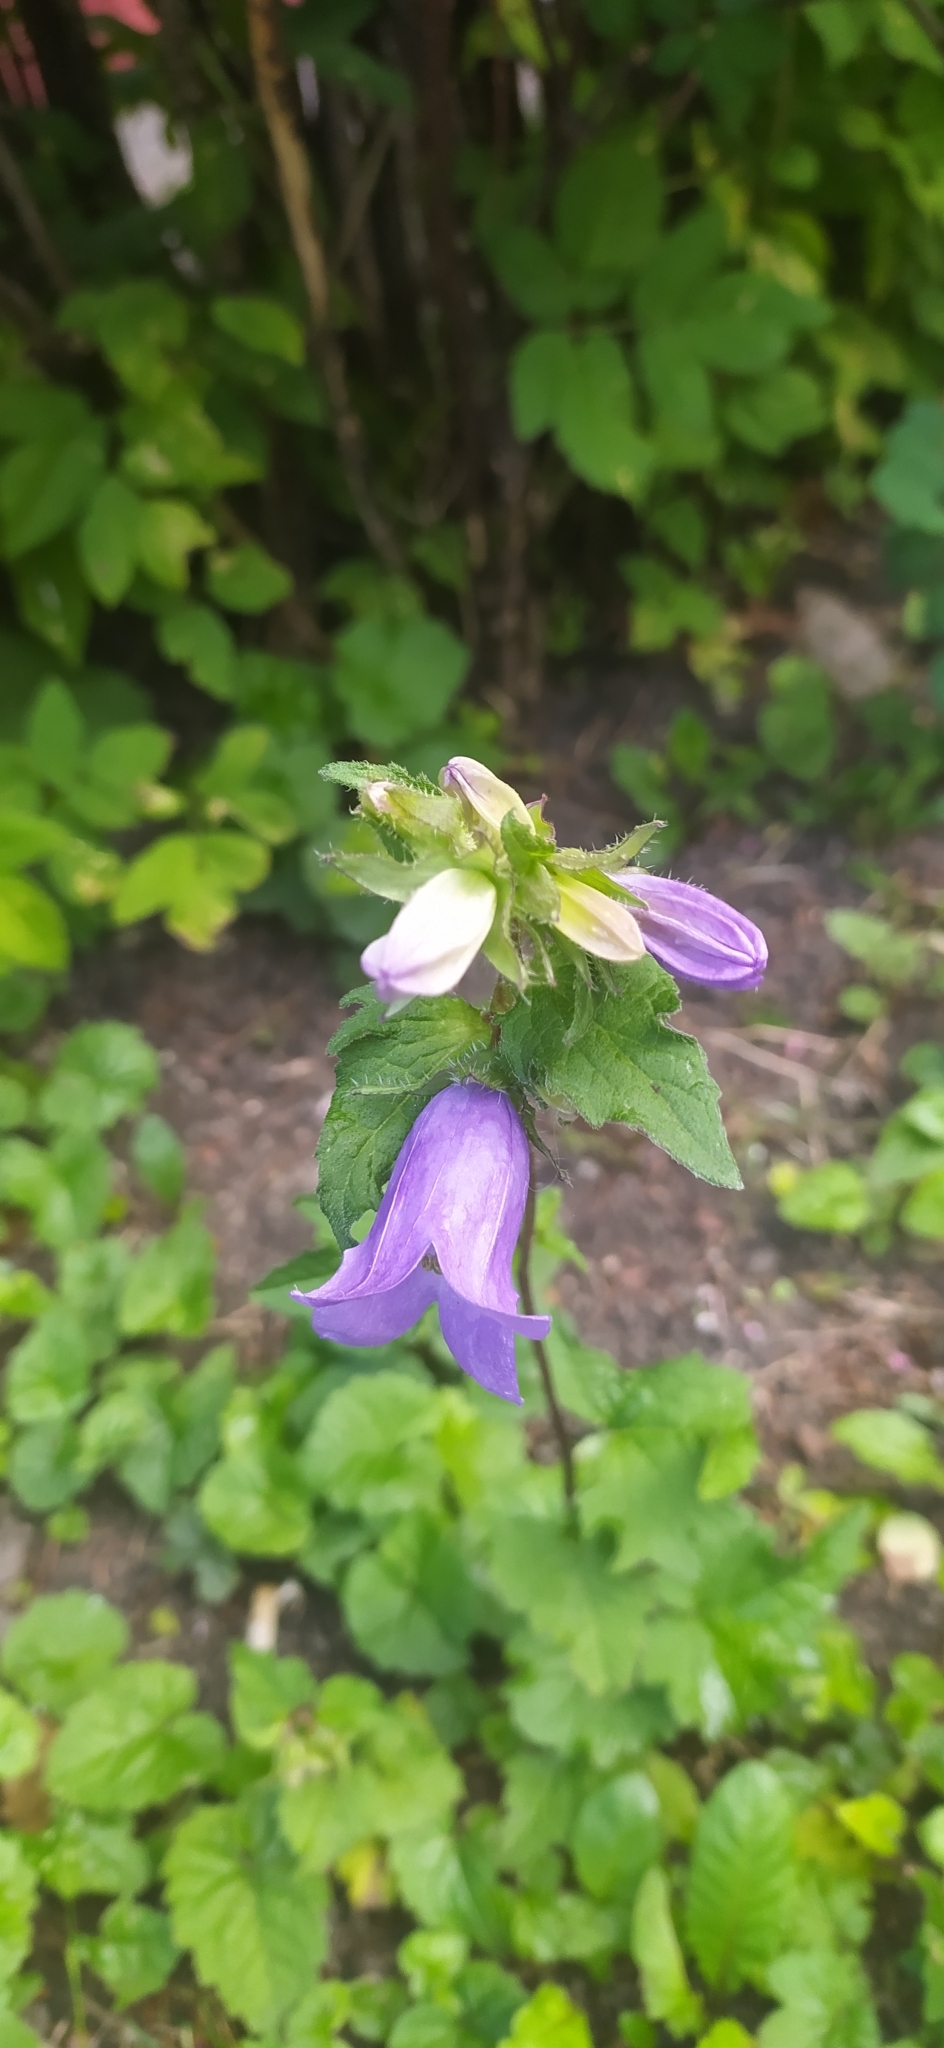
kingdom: Plantae
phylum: Tracheophyta
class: Magnoliopsida
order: Asterales
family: Campanulaceae
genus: Campanula
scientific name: Campanula trachelium
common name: Nettle-leaved bellflower
